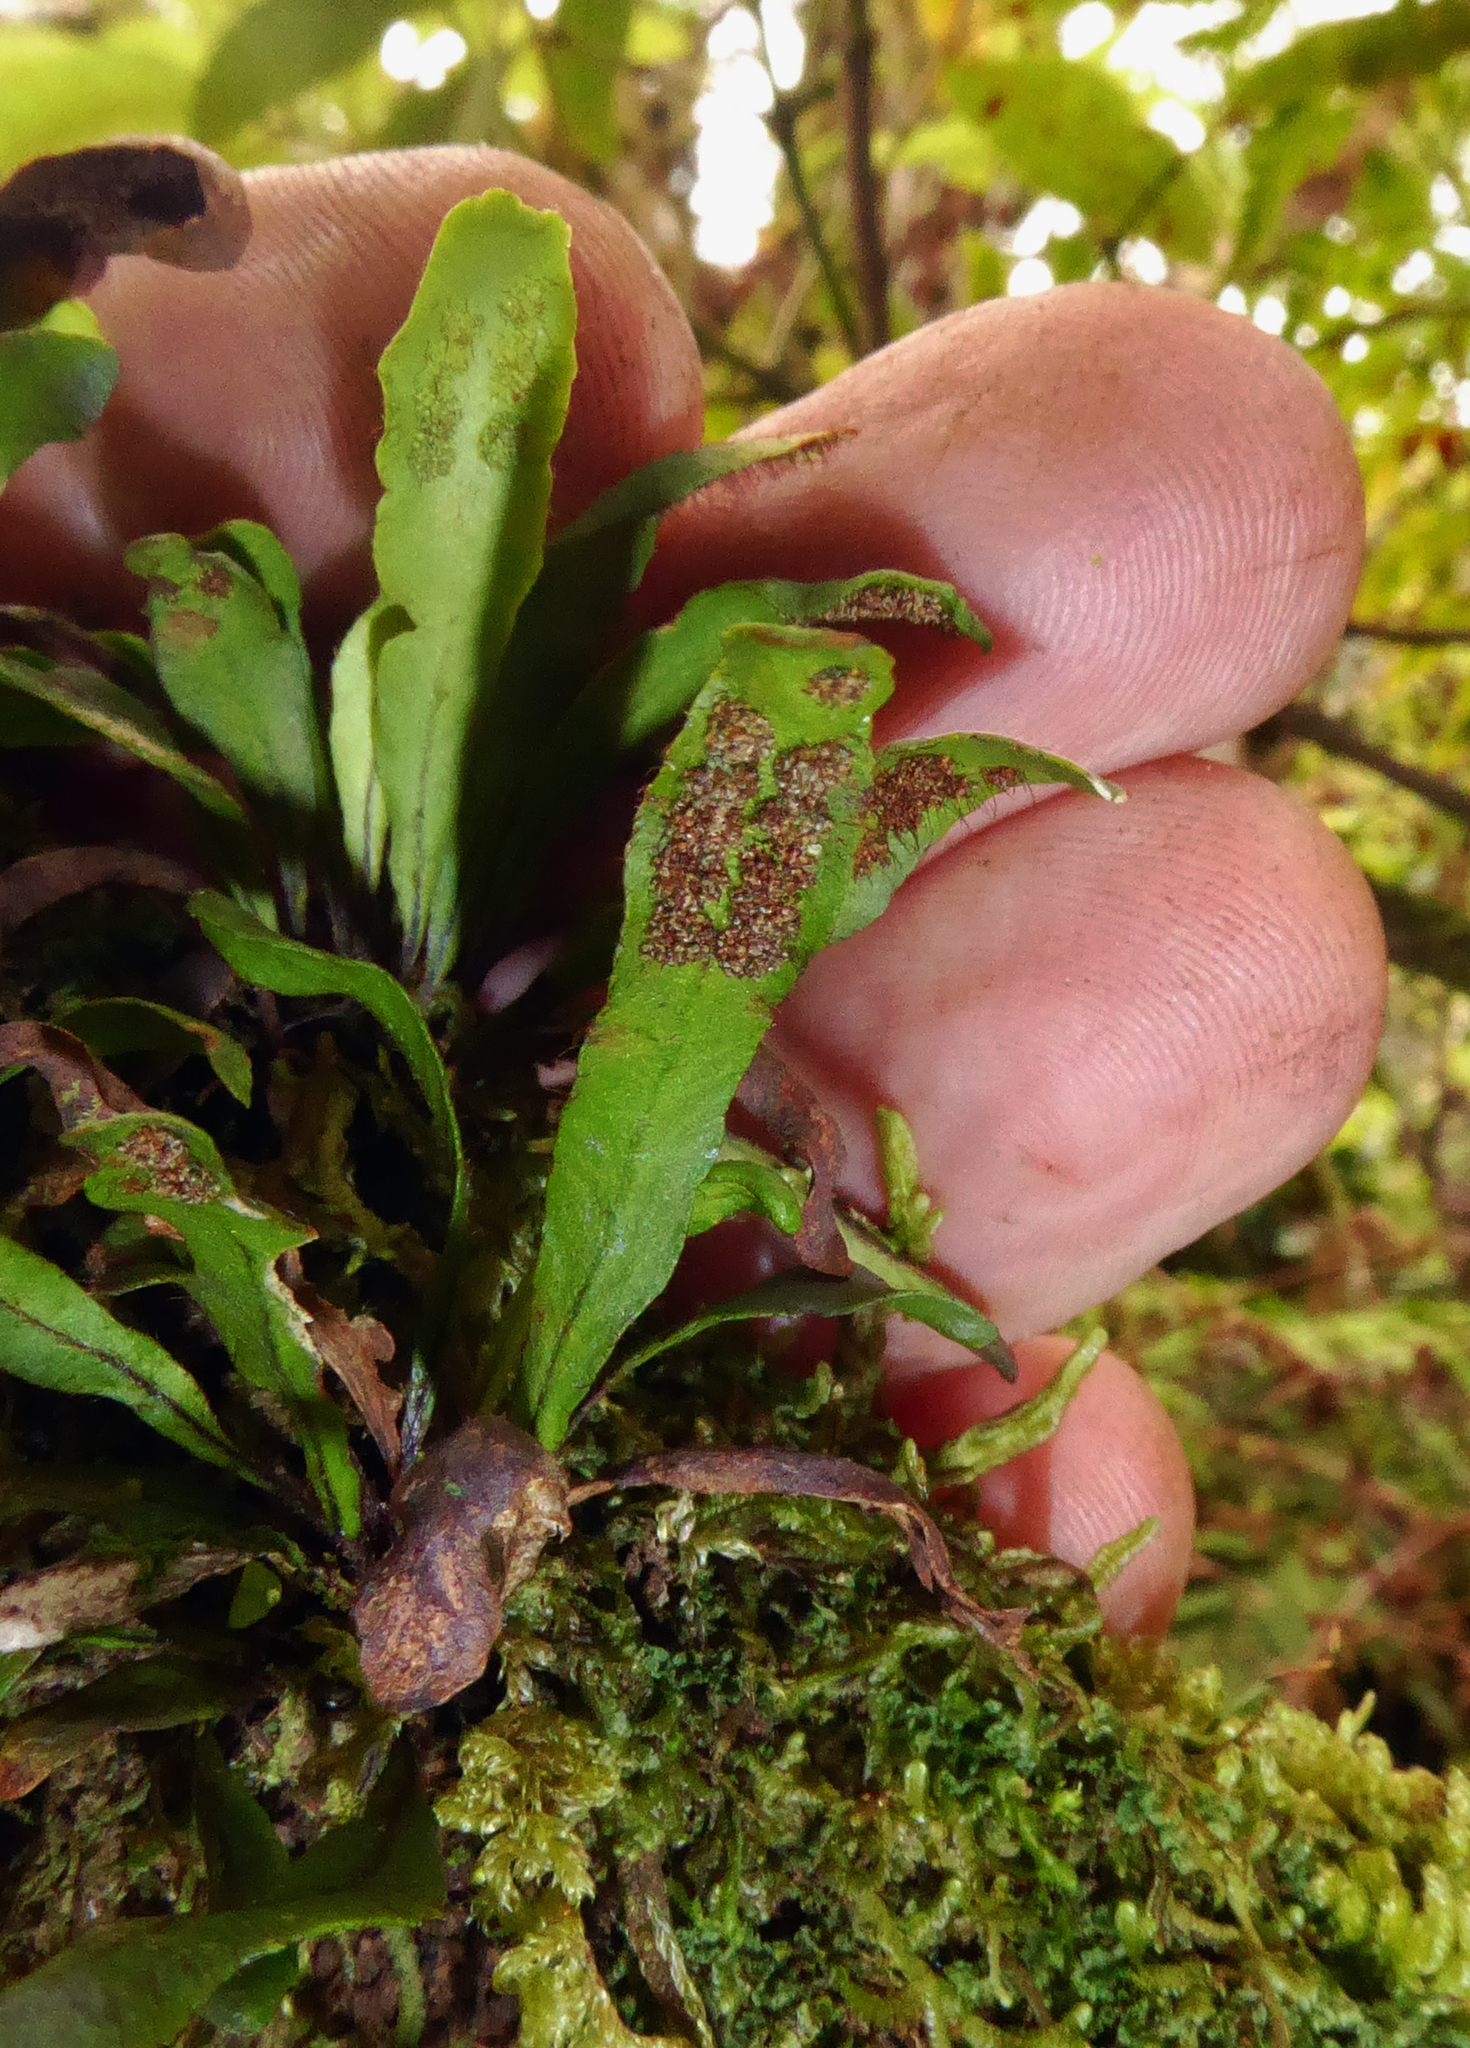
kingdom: Plantae
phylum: Tracheophyta
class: Polypodiopsida
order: Polypodiales
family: Polypodiaceae
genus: Oreogrammitis
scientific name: Oreogrammitis cheesemanii
